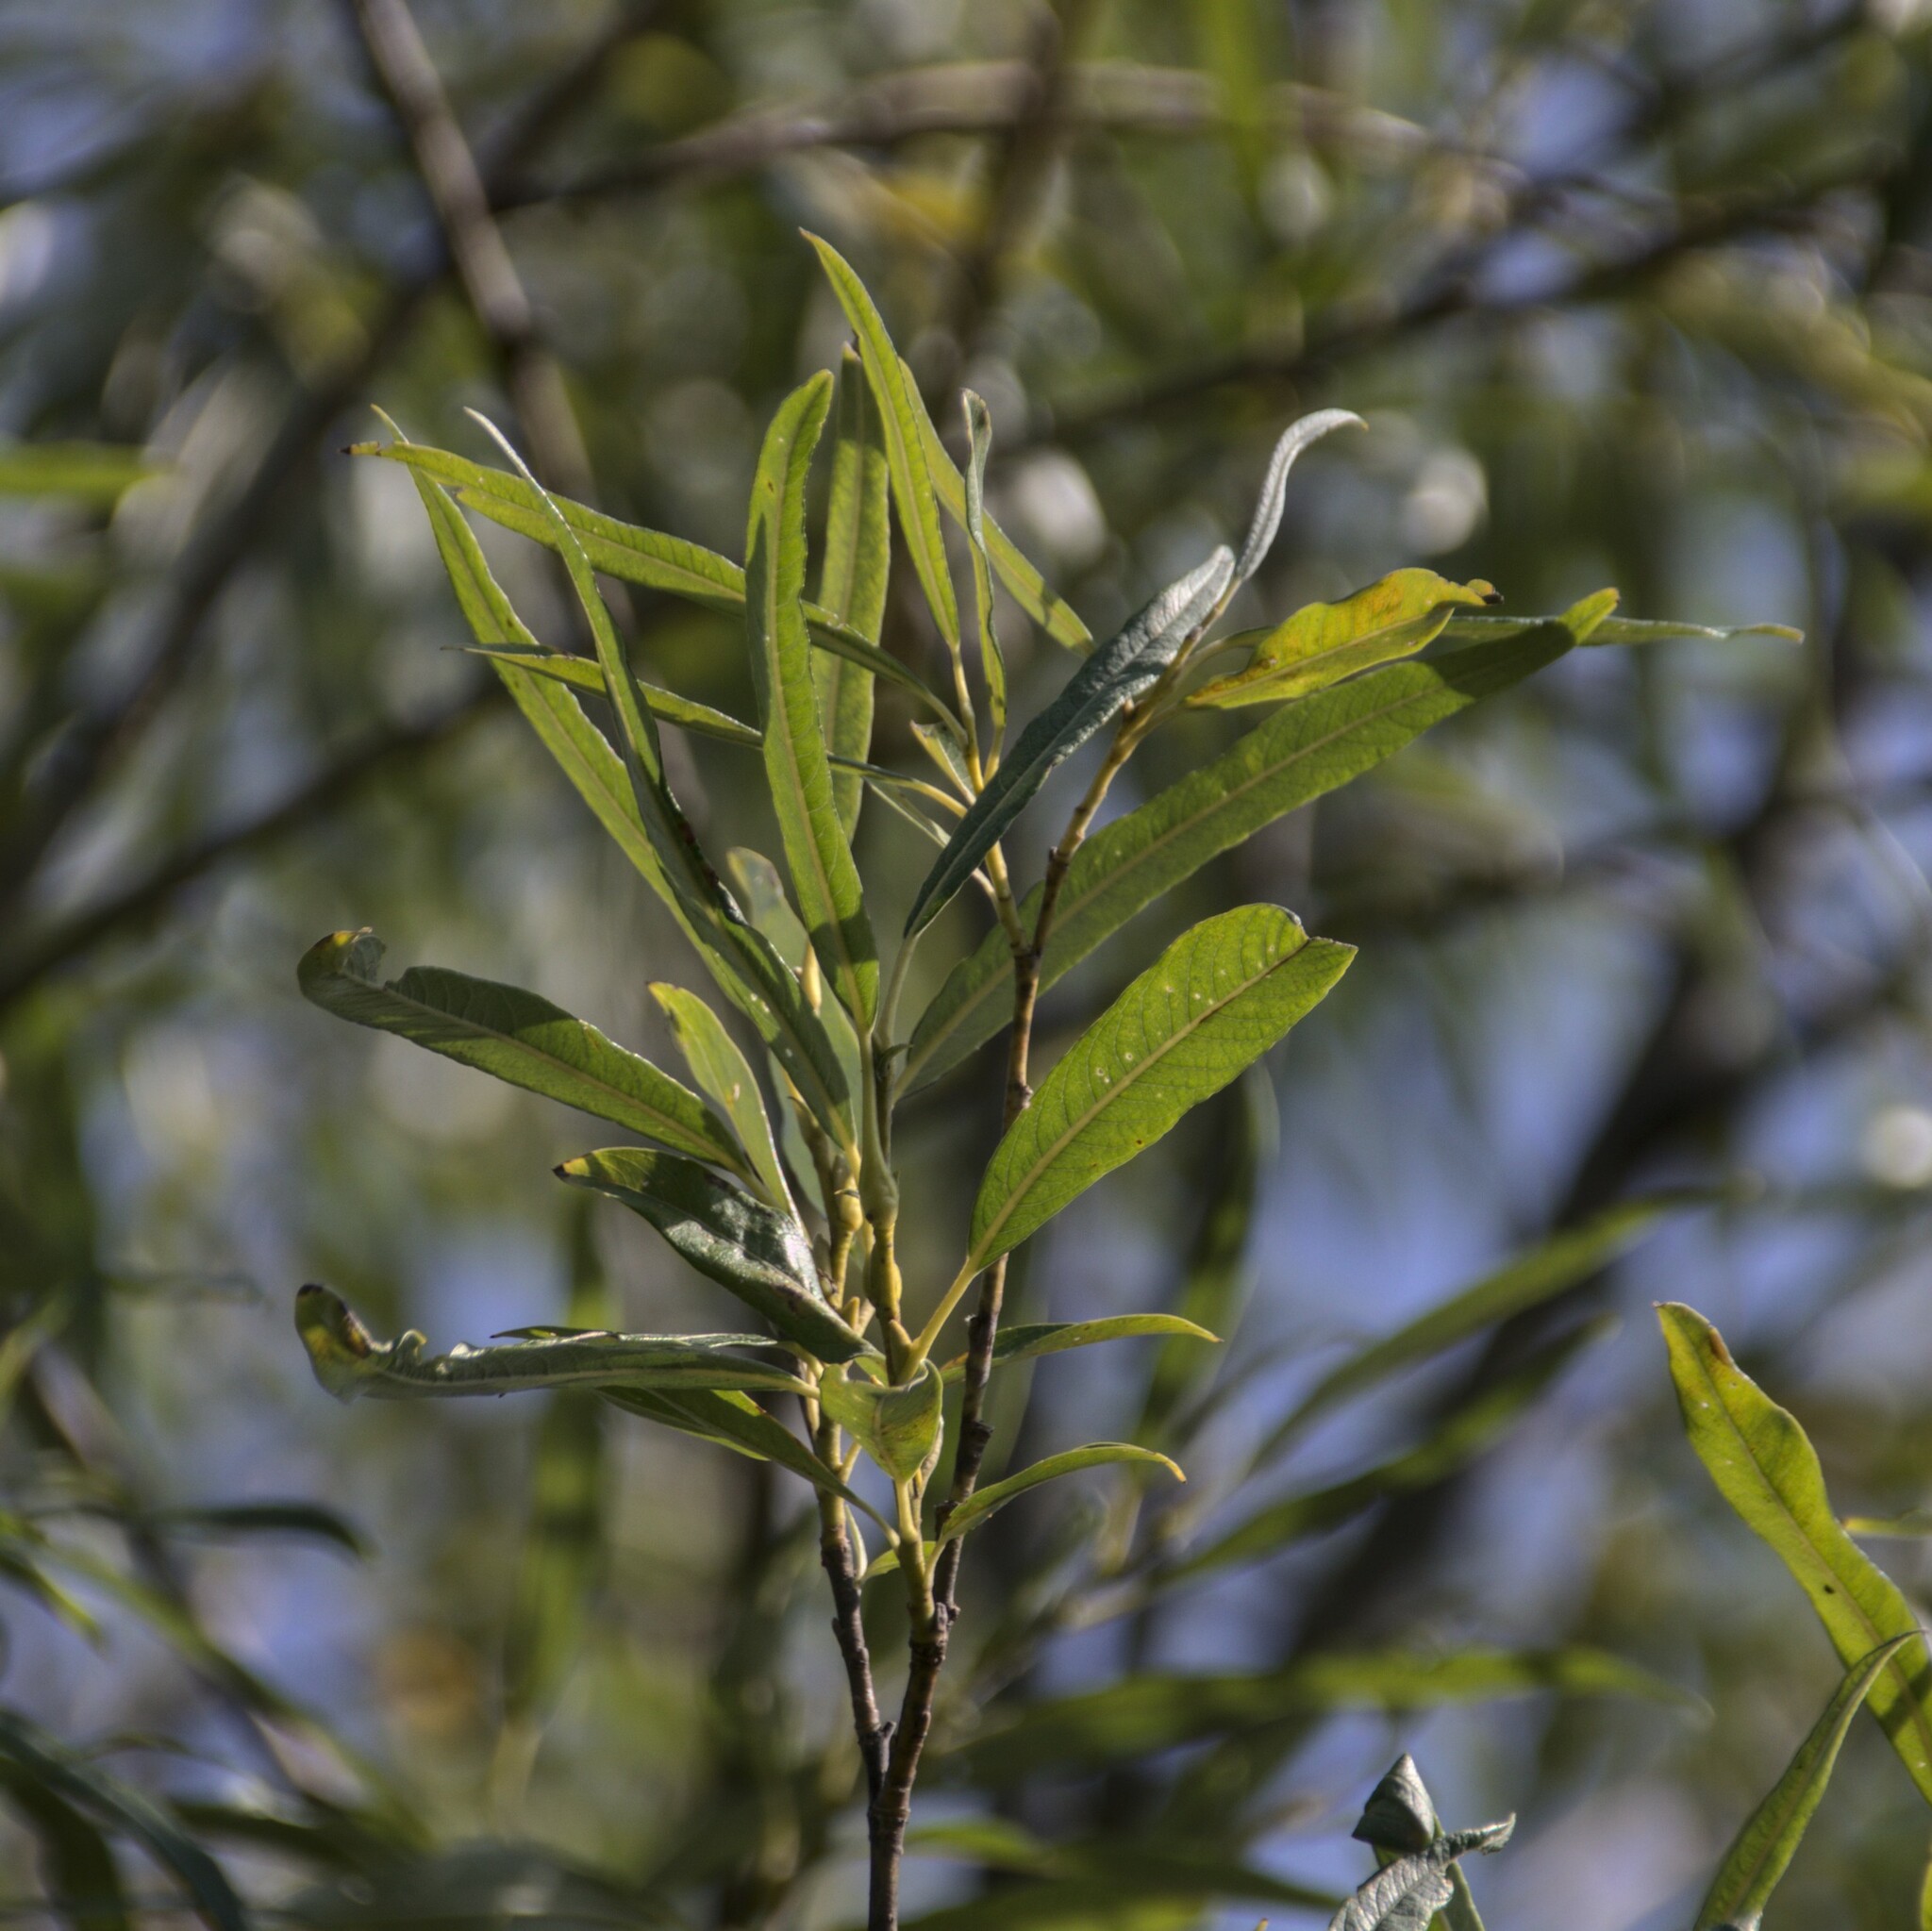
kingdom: Plantae
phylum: Tracheophyta
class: Magnoliopsida
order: Malpighiales
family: Salicaceae
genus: Salix
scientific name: Salix gmelinii
